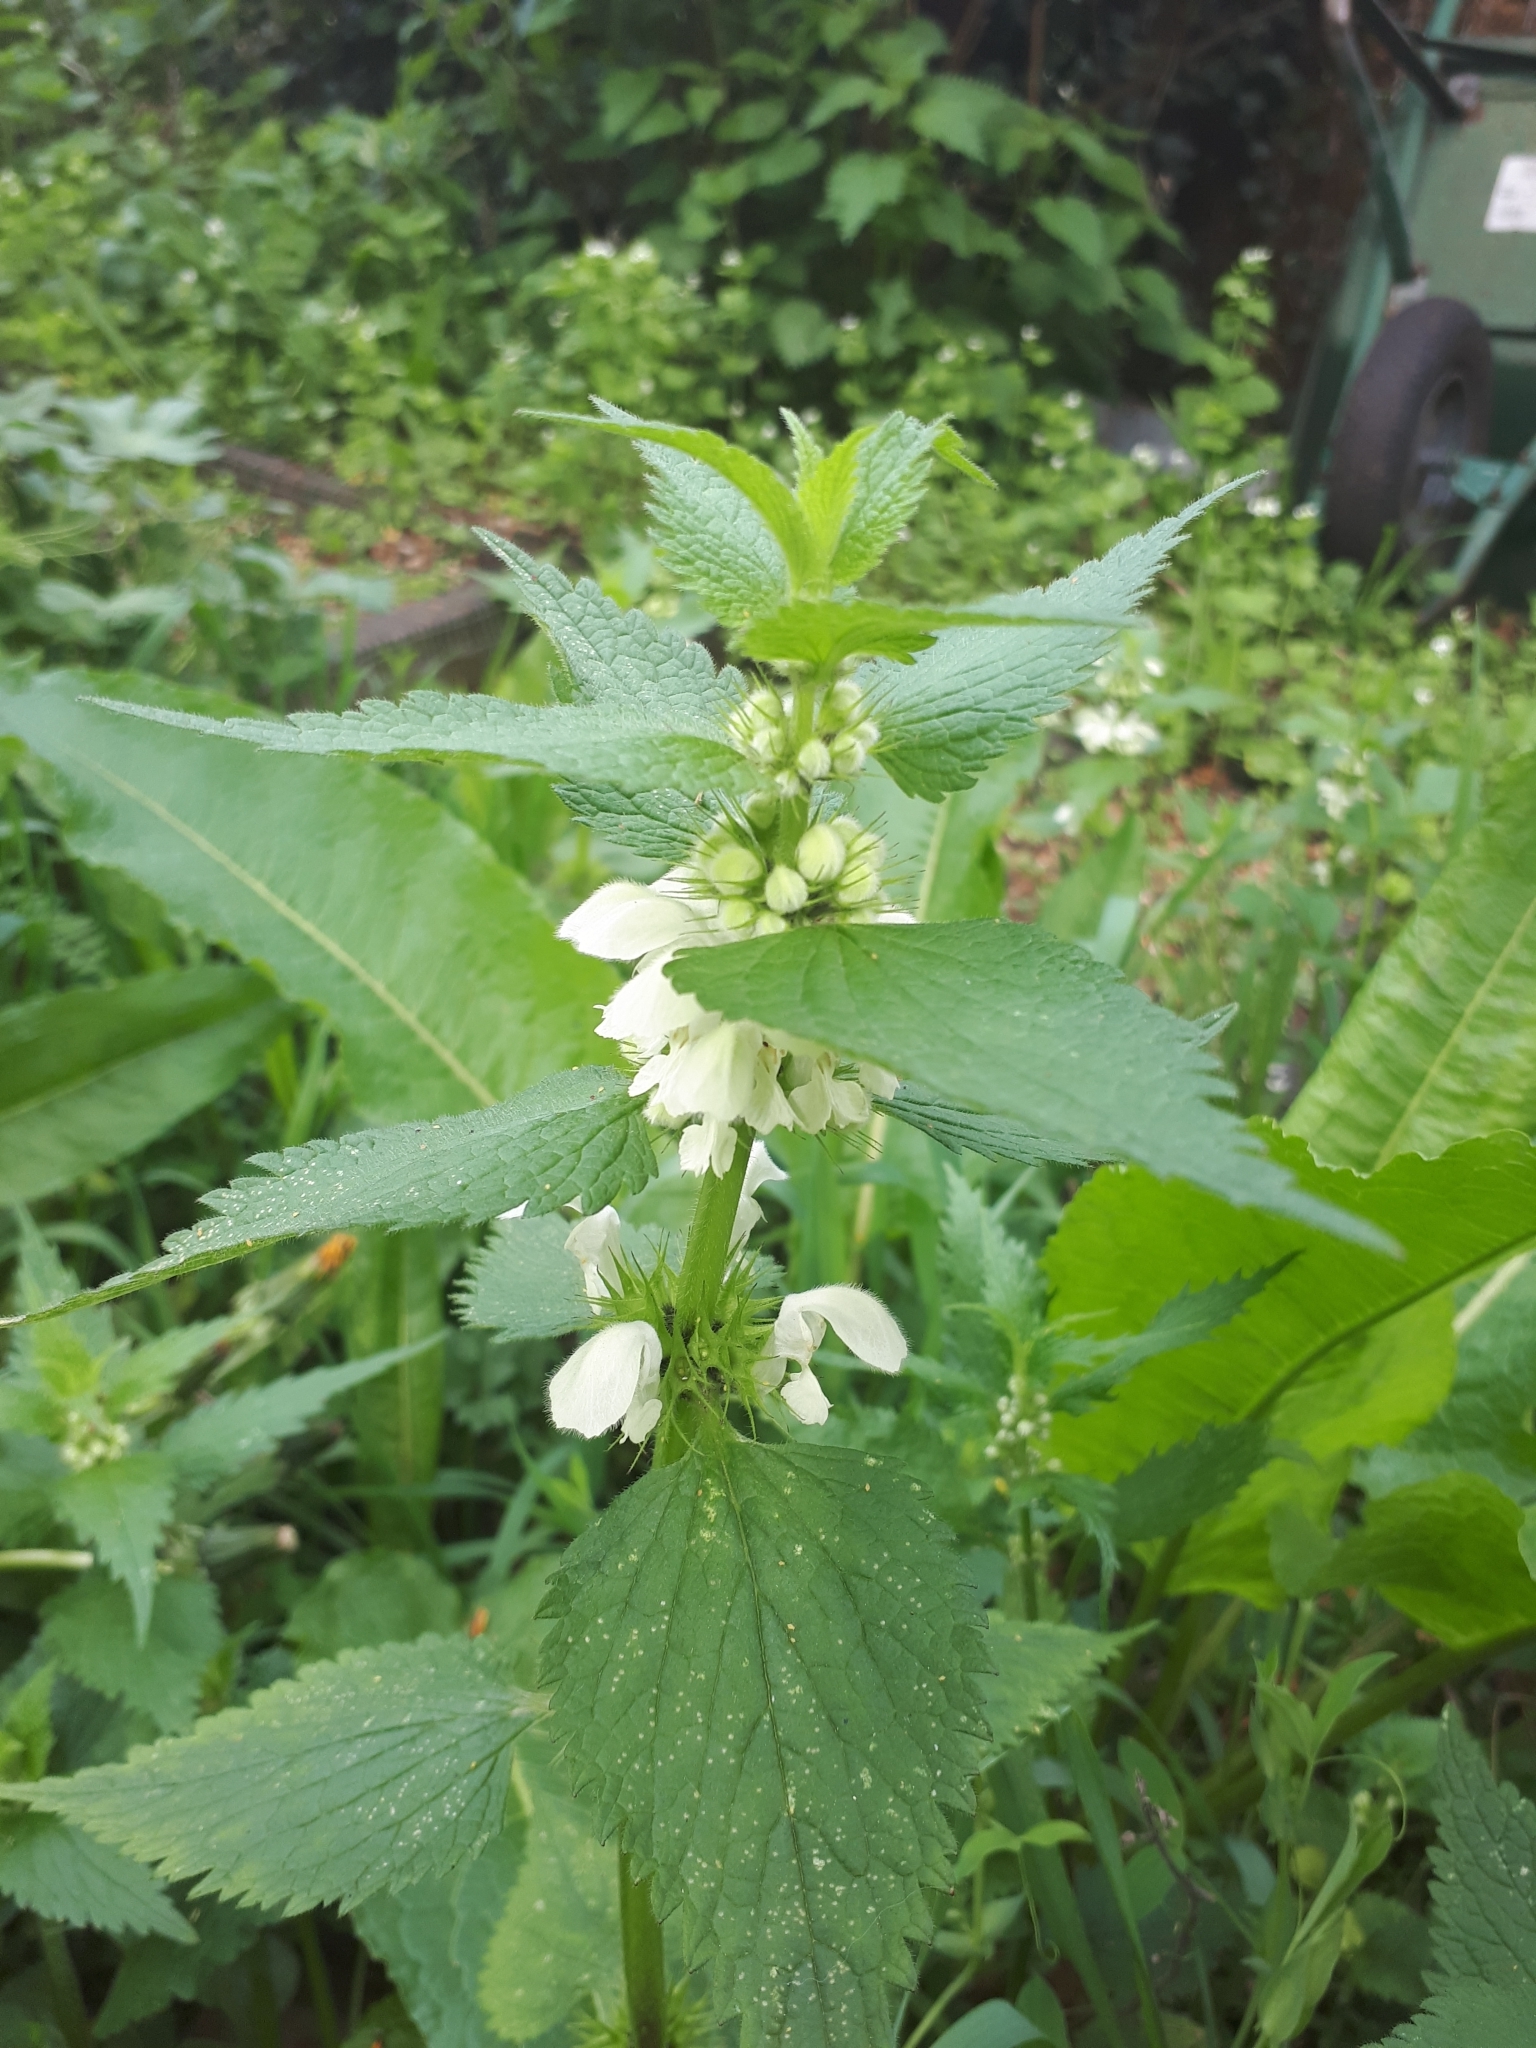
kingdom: Plantae
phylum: Tracheophyta
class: Magnoliopsida
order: Lamiales
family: Lamiaceae
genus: Lamium
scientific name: Lamium album
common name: White dead-nettle
